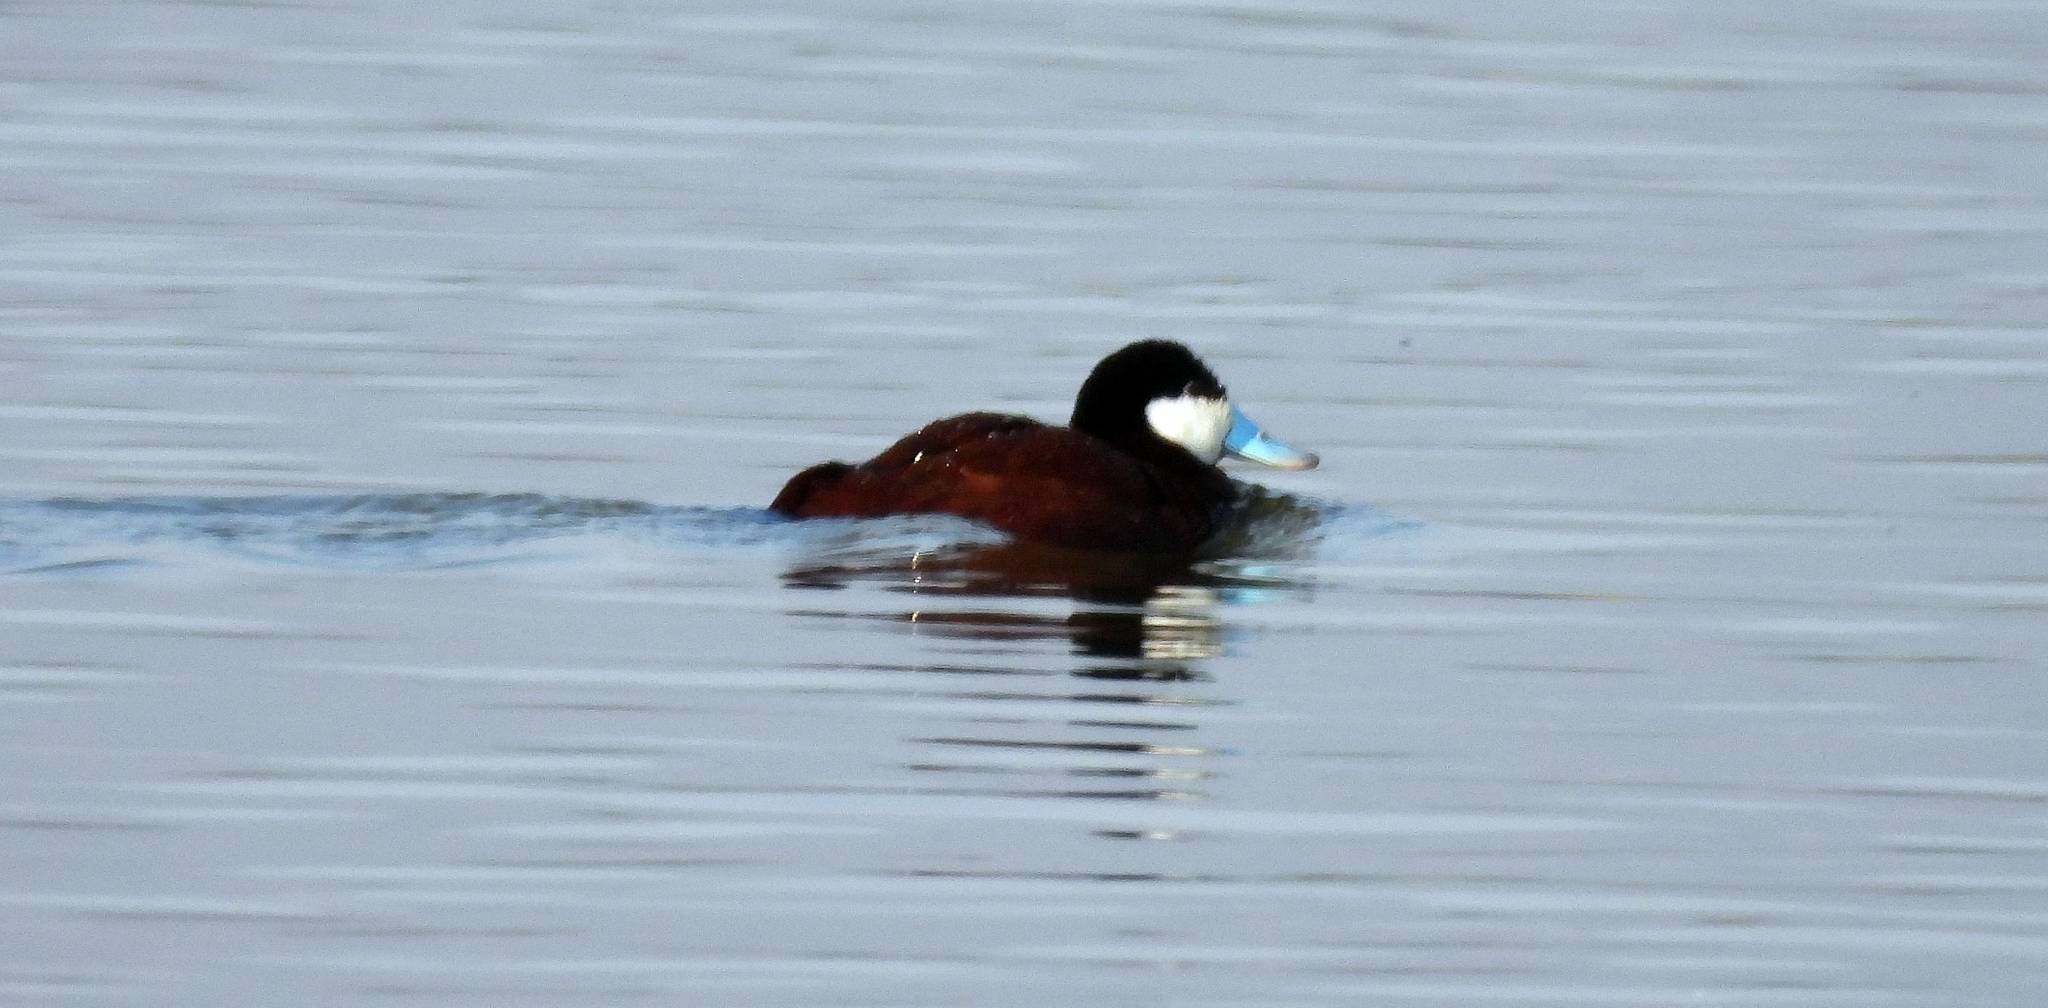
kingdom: Animalia
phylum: Chordata
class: Aves
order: Anseriformes
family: Anatidae
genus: Oxyura
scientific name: Oxyura jamaicensis
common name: Ruddy duck
